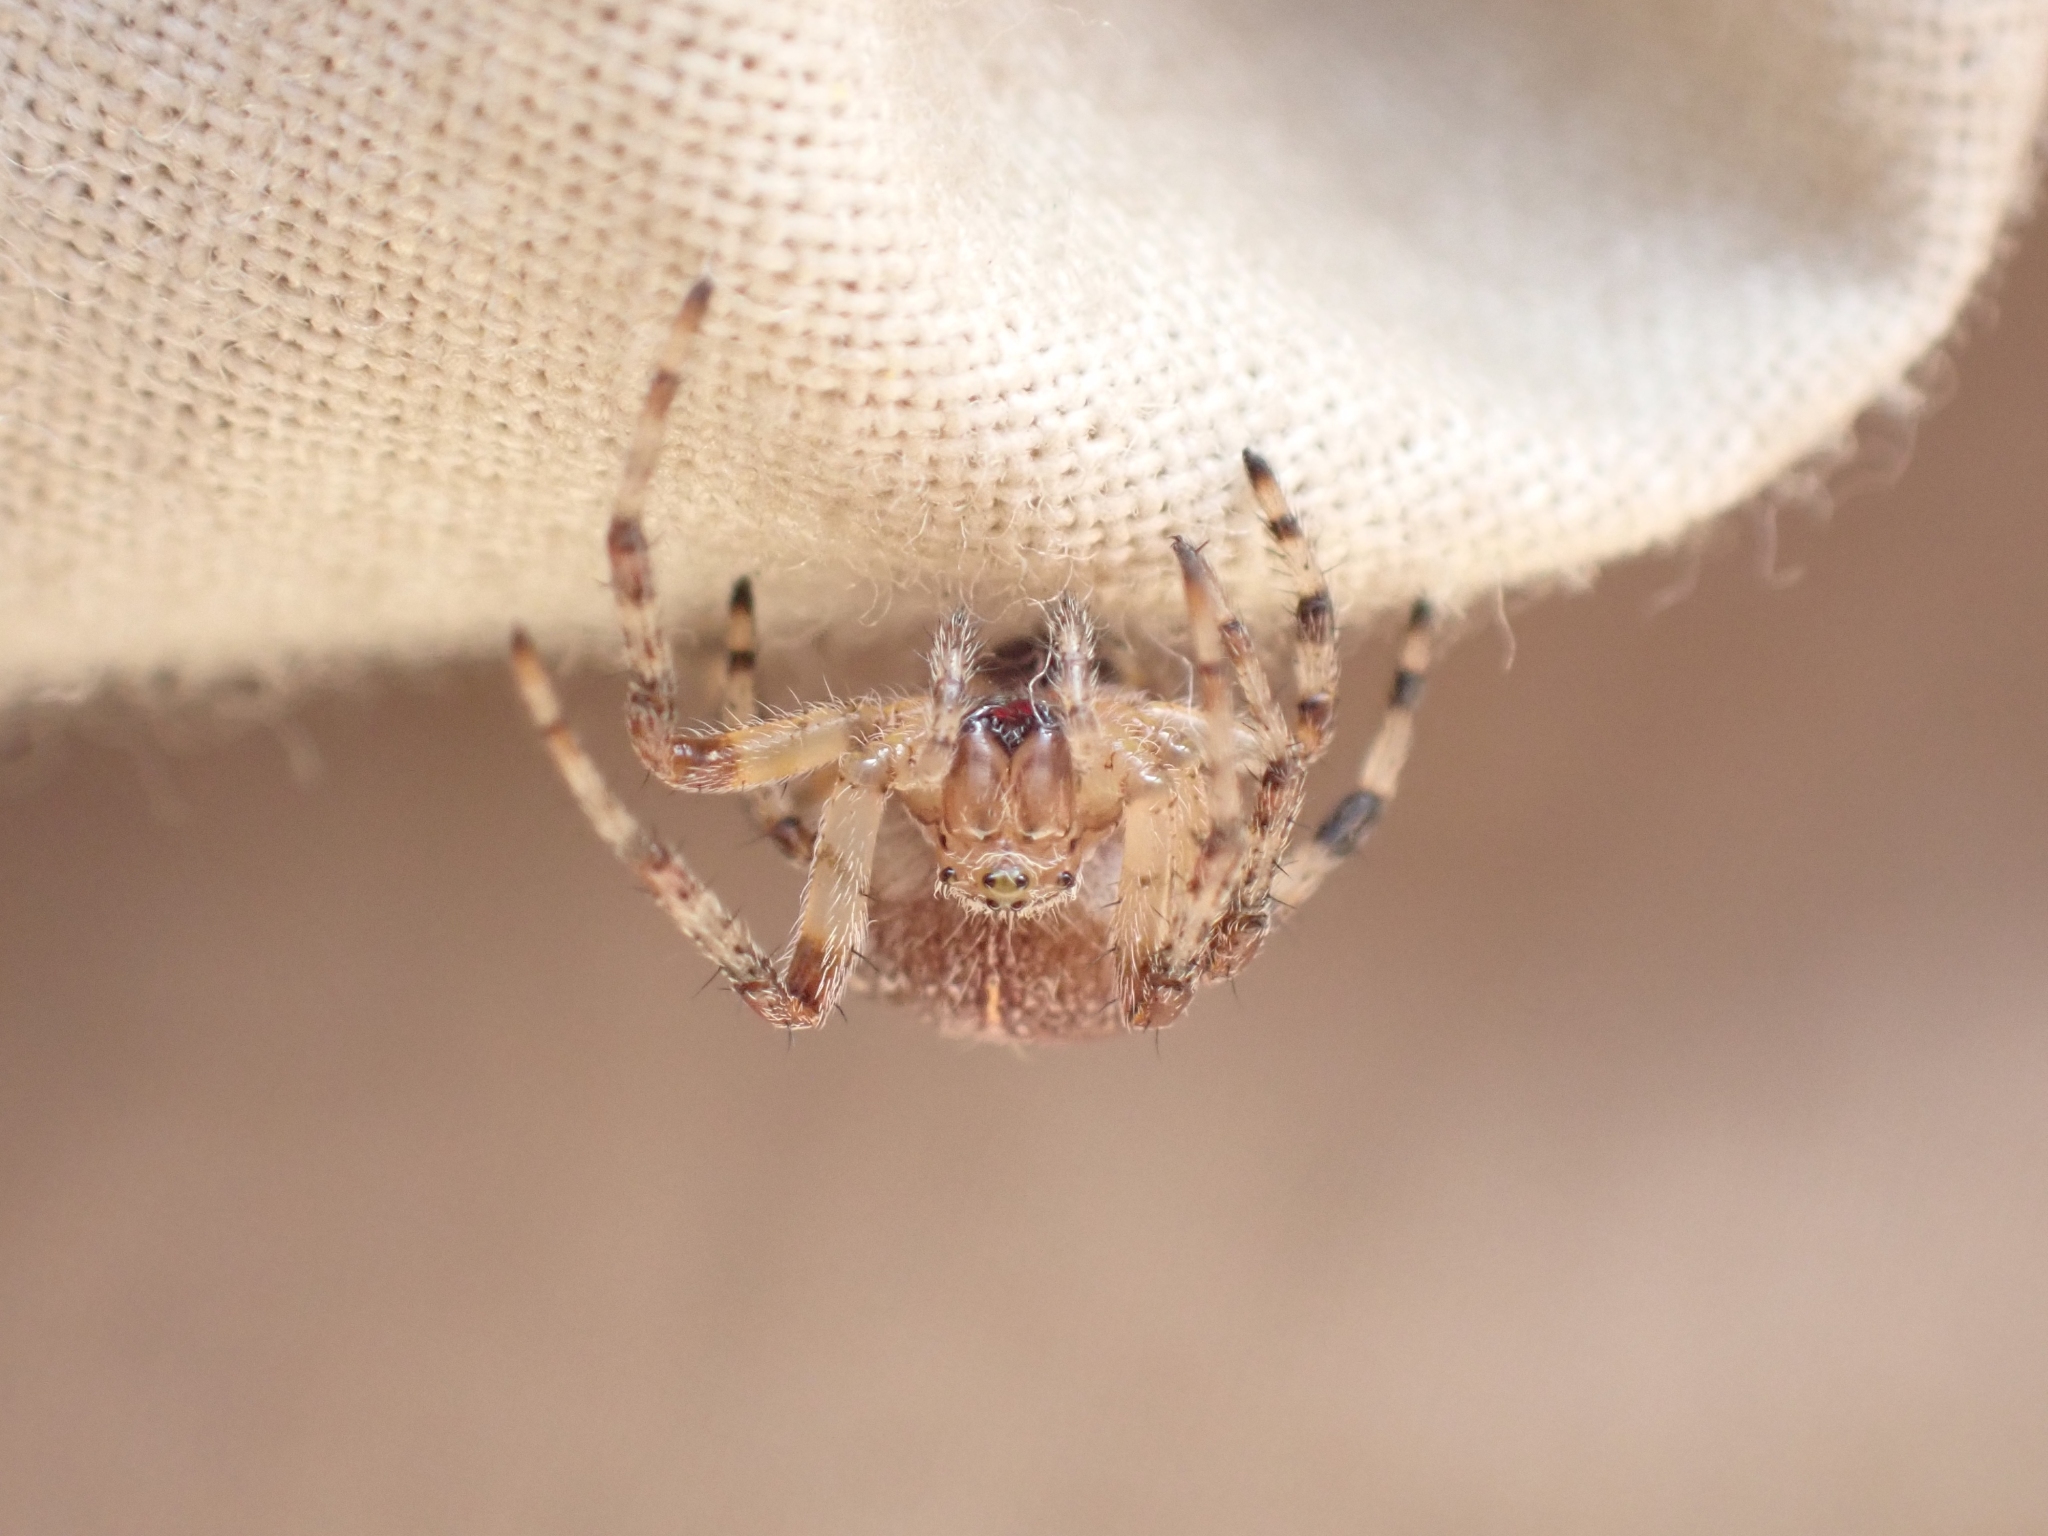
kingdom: Animalia
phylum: Arthropoda
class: Arachnida
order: Araneae
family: Araneidae
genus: Araneus
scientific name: Araneus marmoreus
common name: Marbled orbweaver
